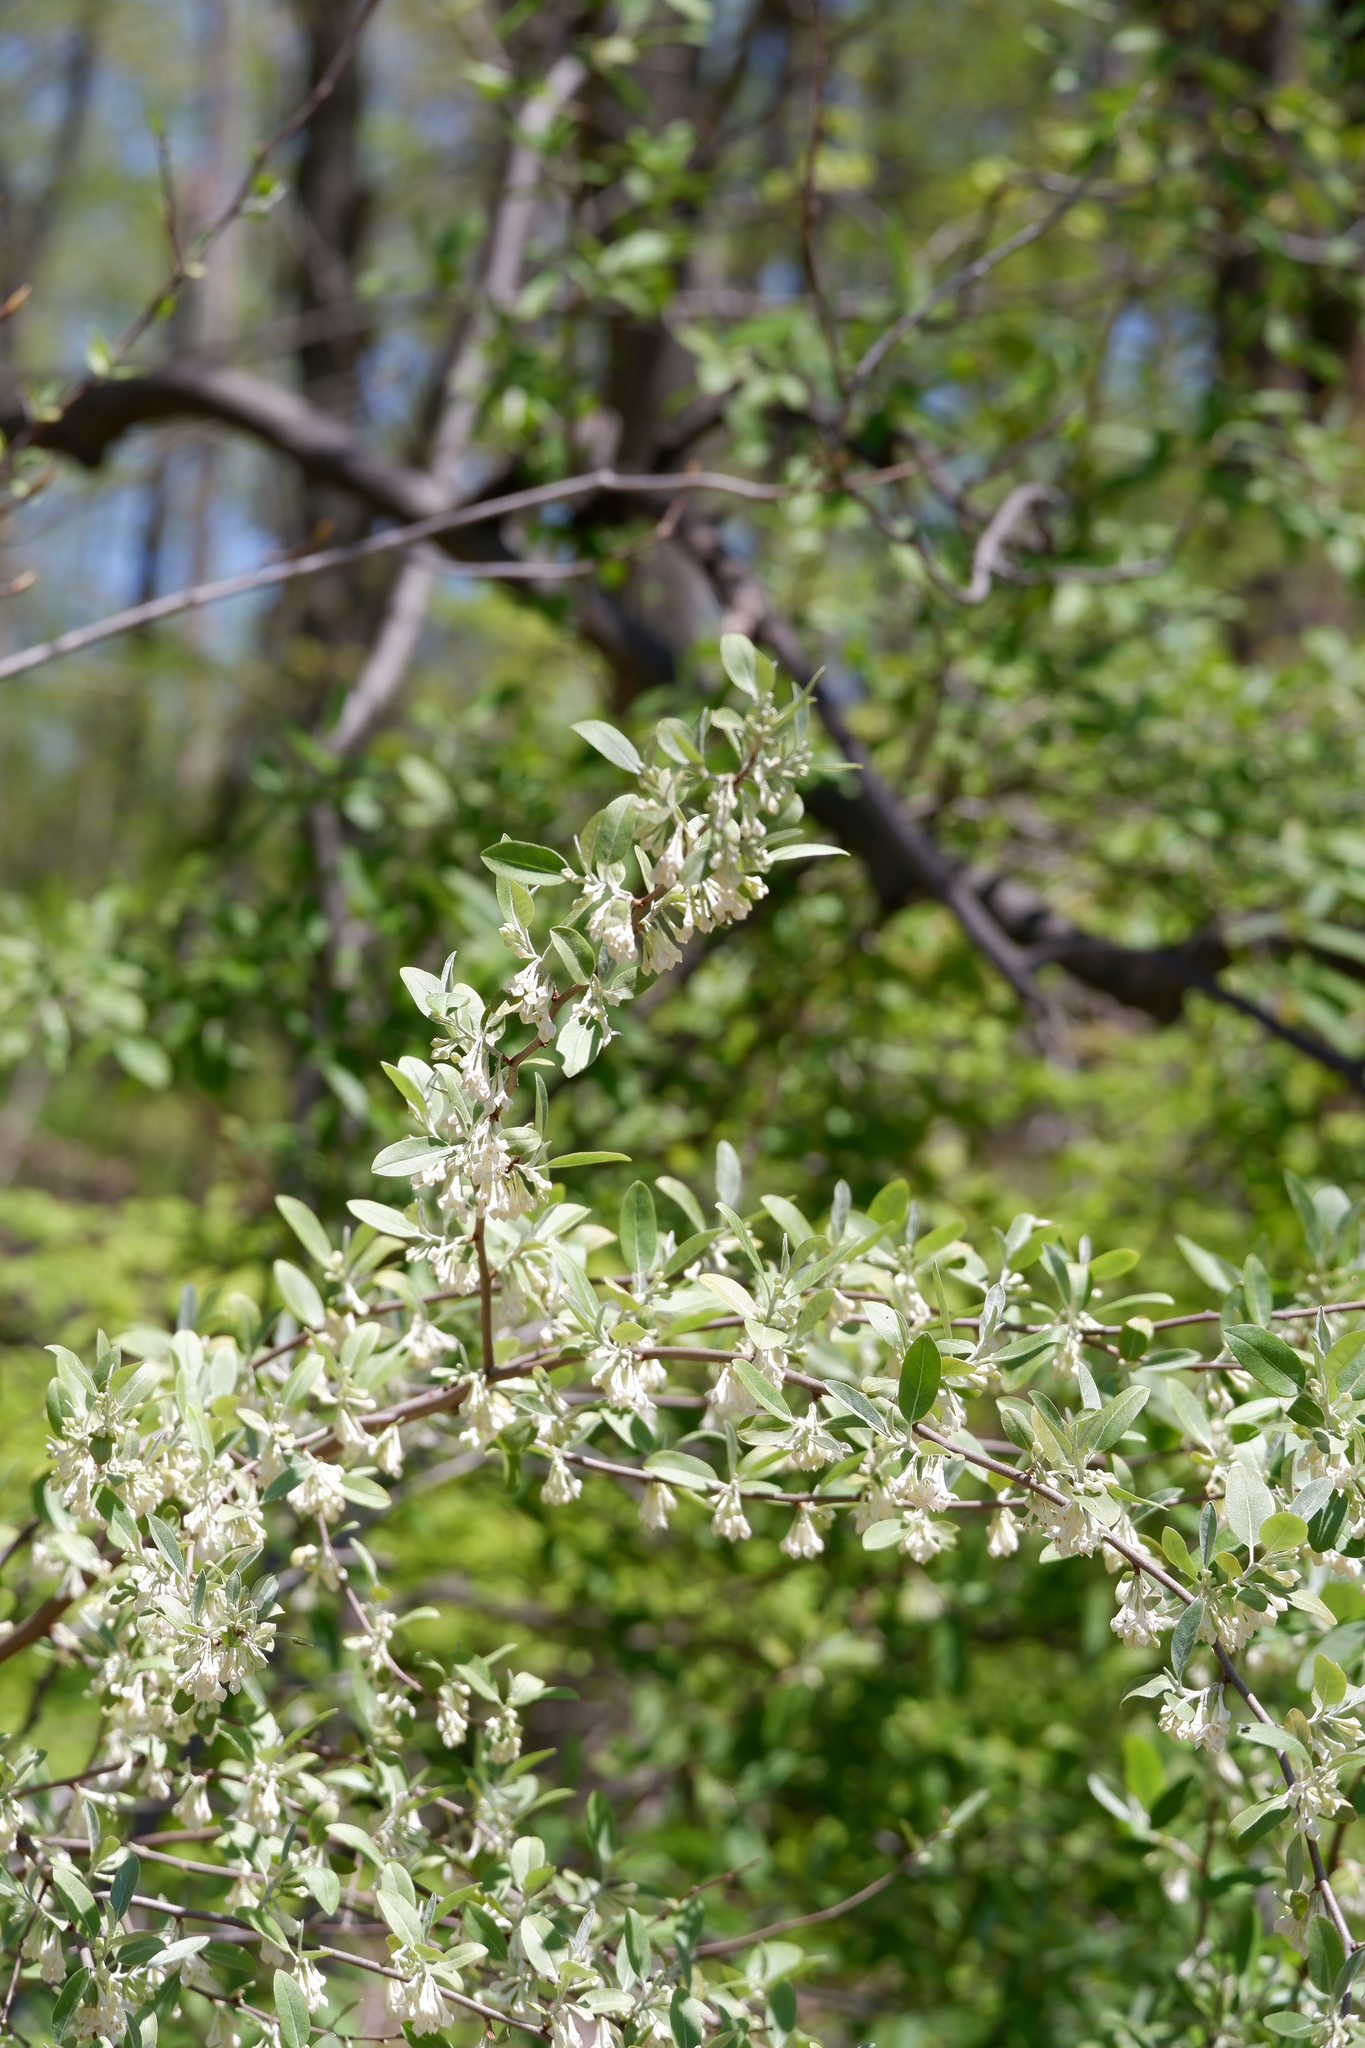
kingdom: Plantae
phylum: Tracheophyta
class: Magnoliopsida
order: Rosales
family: Elaeagnaceae
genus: Elaeagnus
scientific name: Elaeagnus umbellata
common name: Autumn olive
